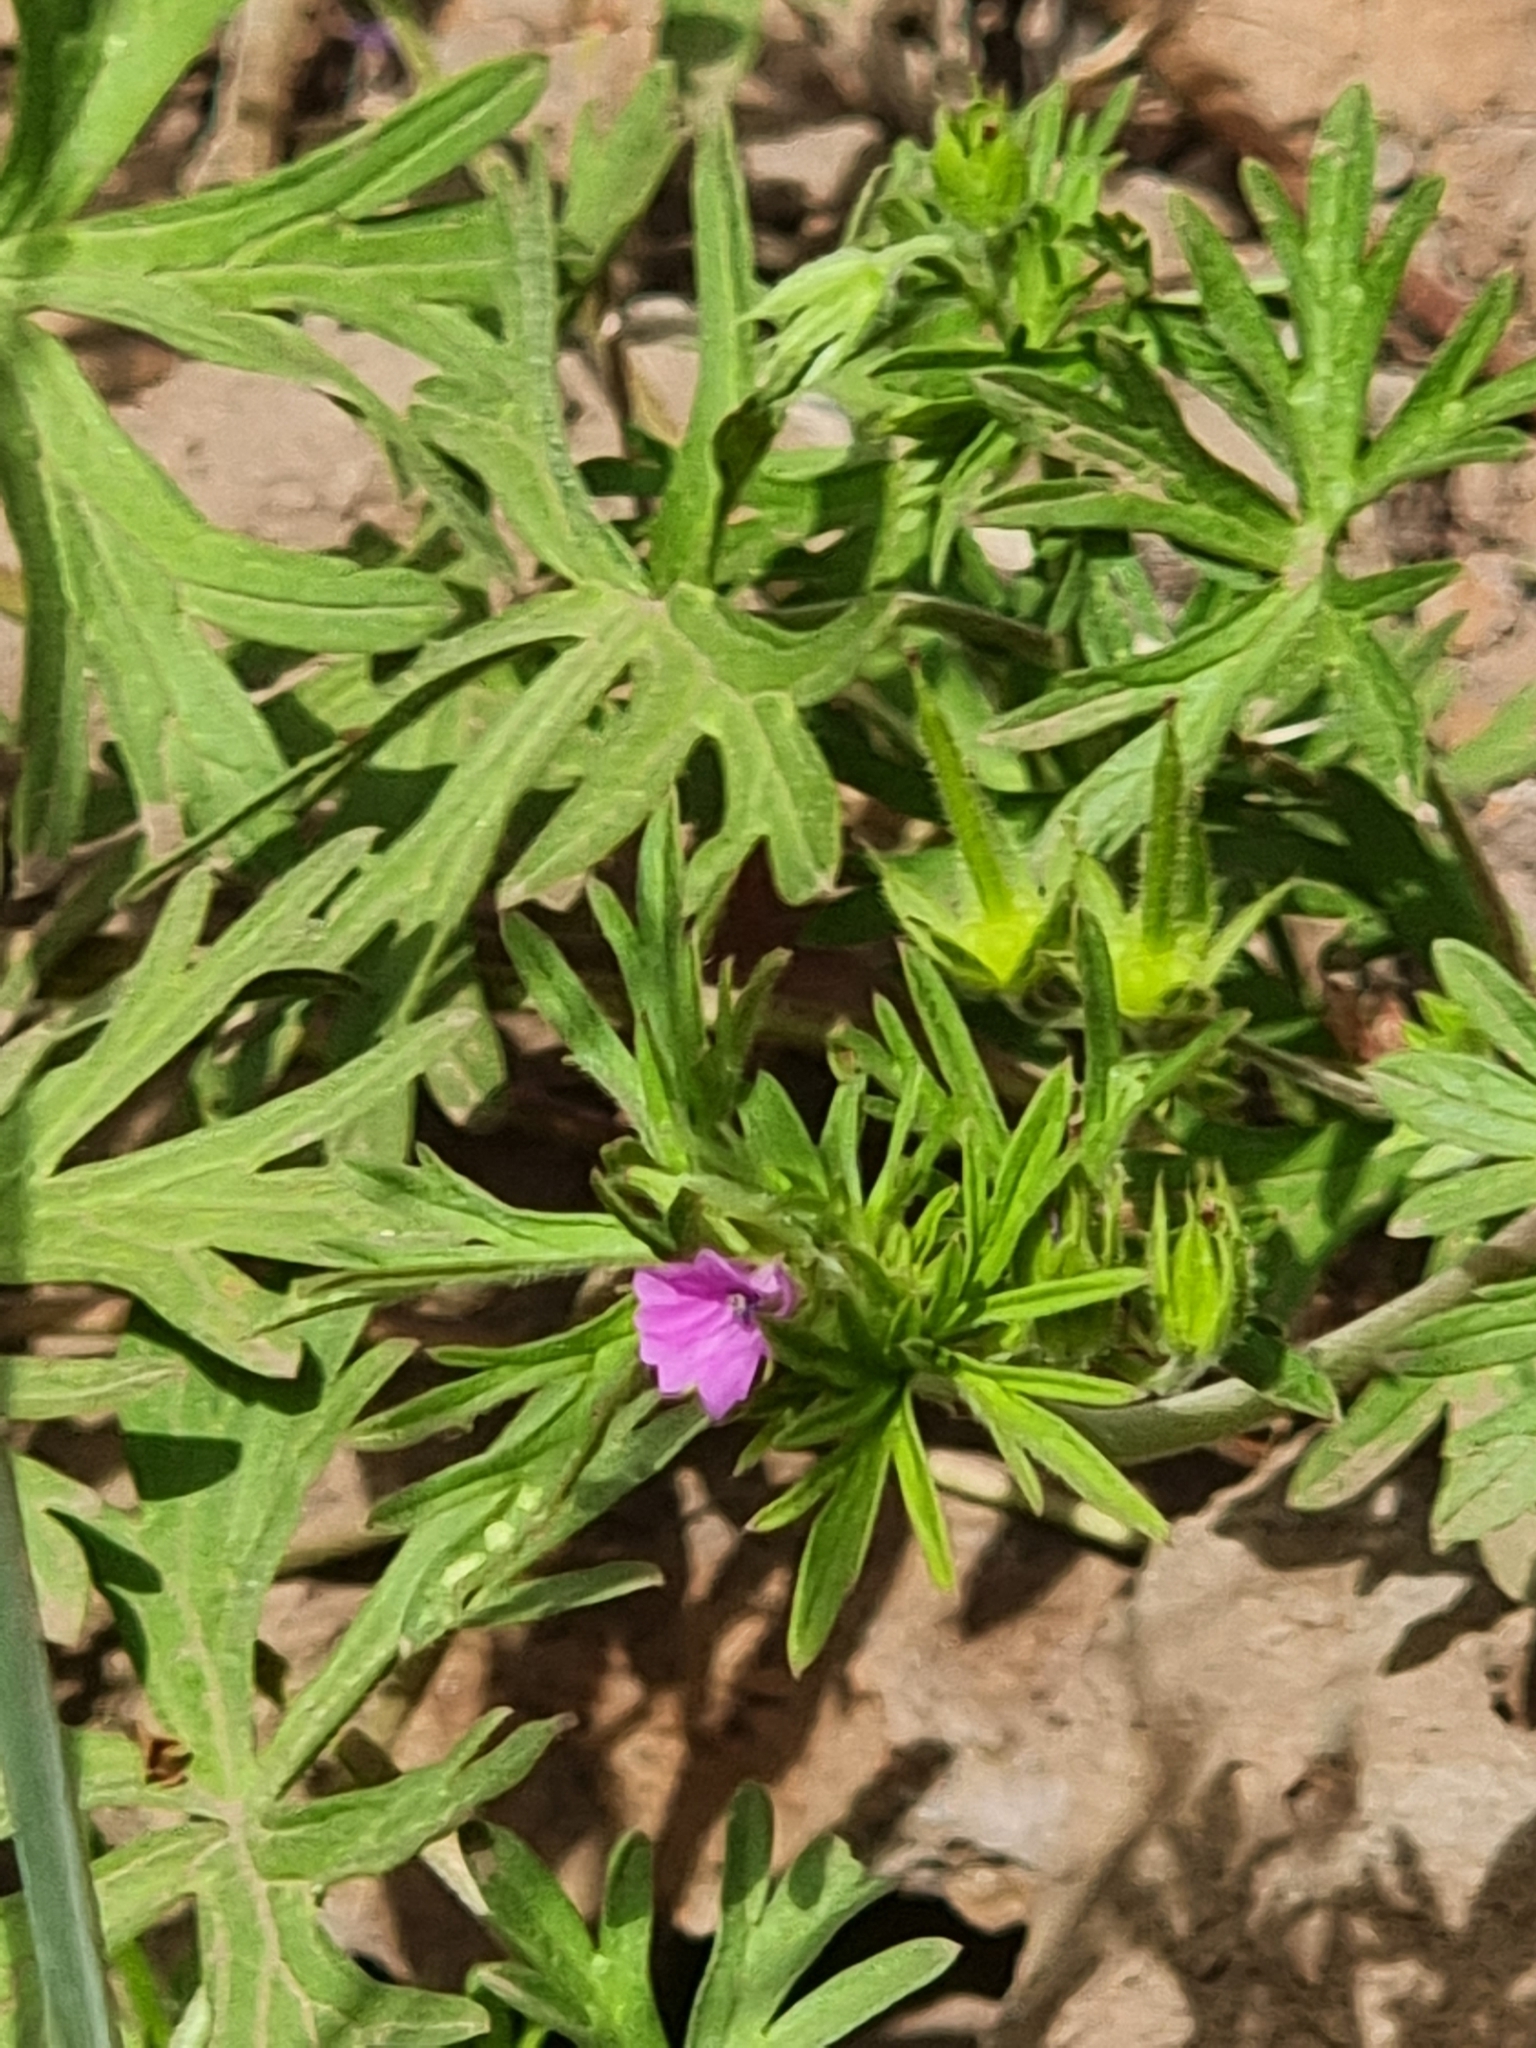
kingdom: Plantae
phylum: Tracheophyta
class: Magnoliopsida
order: Geraniales
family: Geraniaceae
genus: Geranium
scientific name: Geranium dissectum
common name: Cut-leaved crane's-bill
